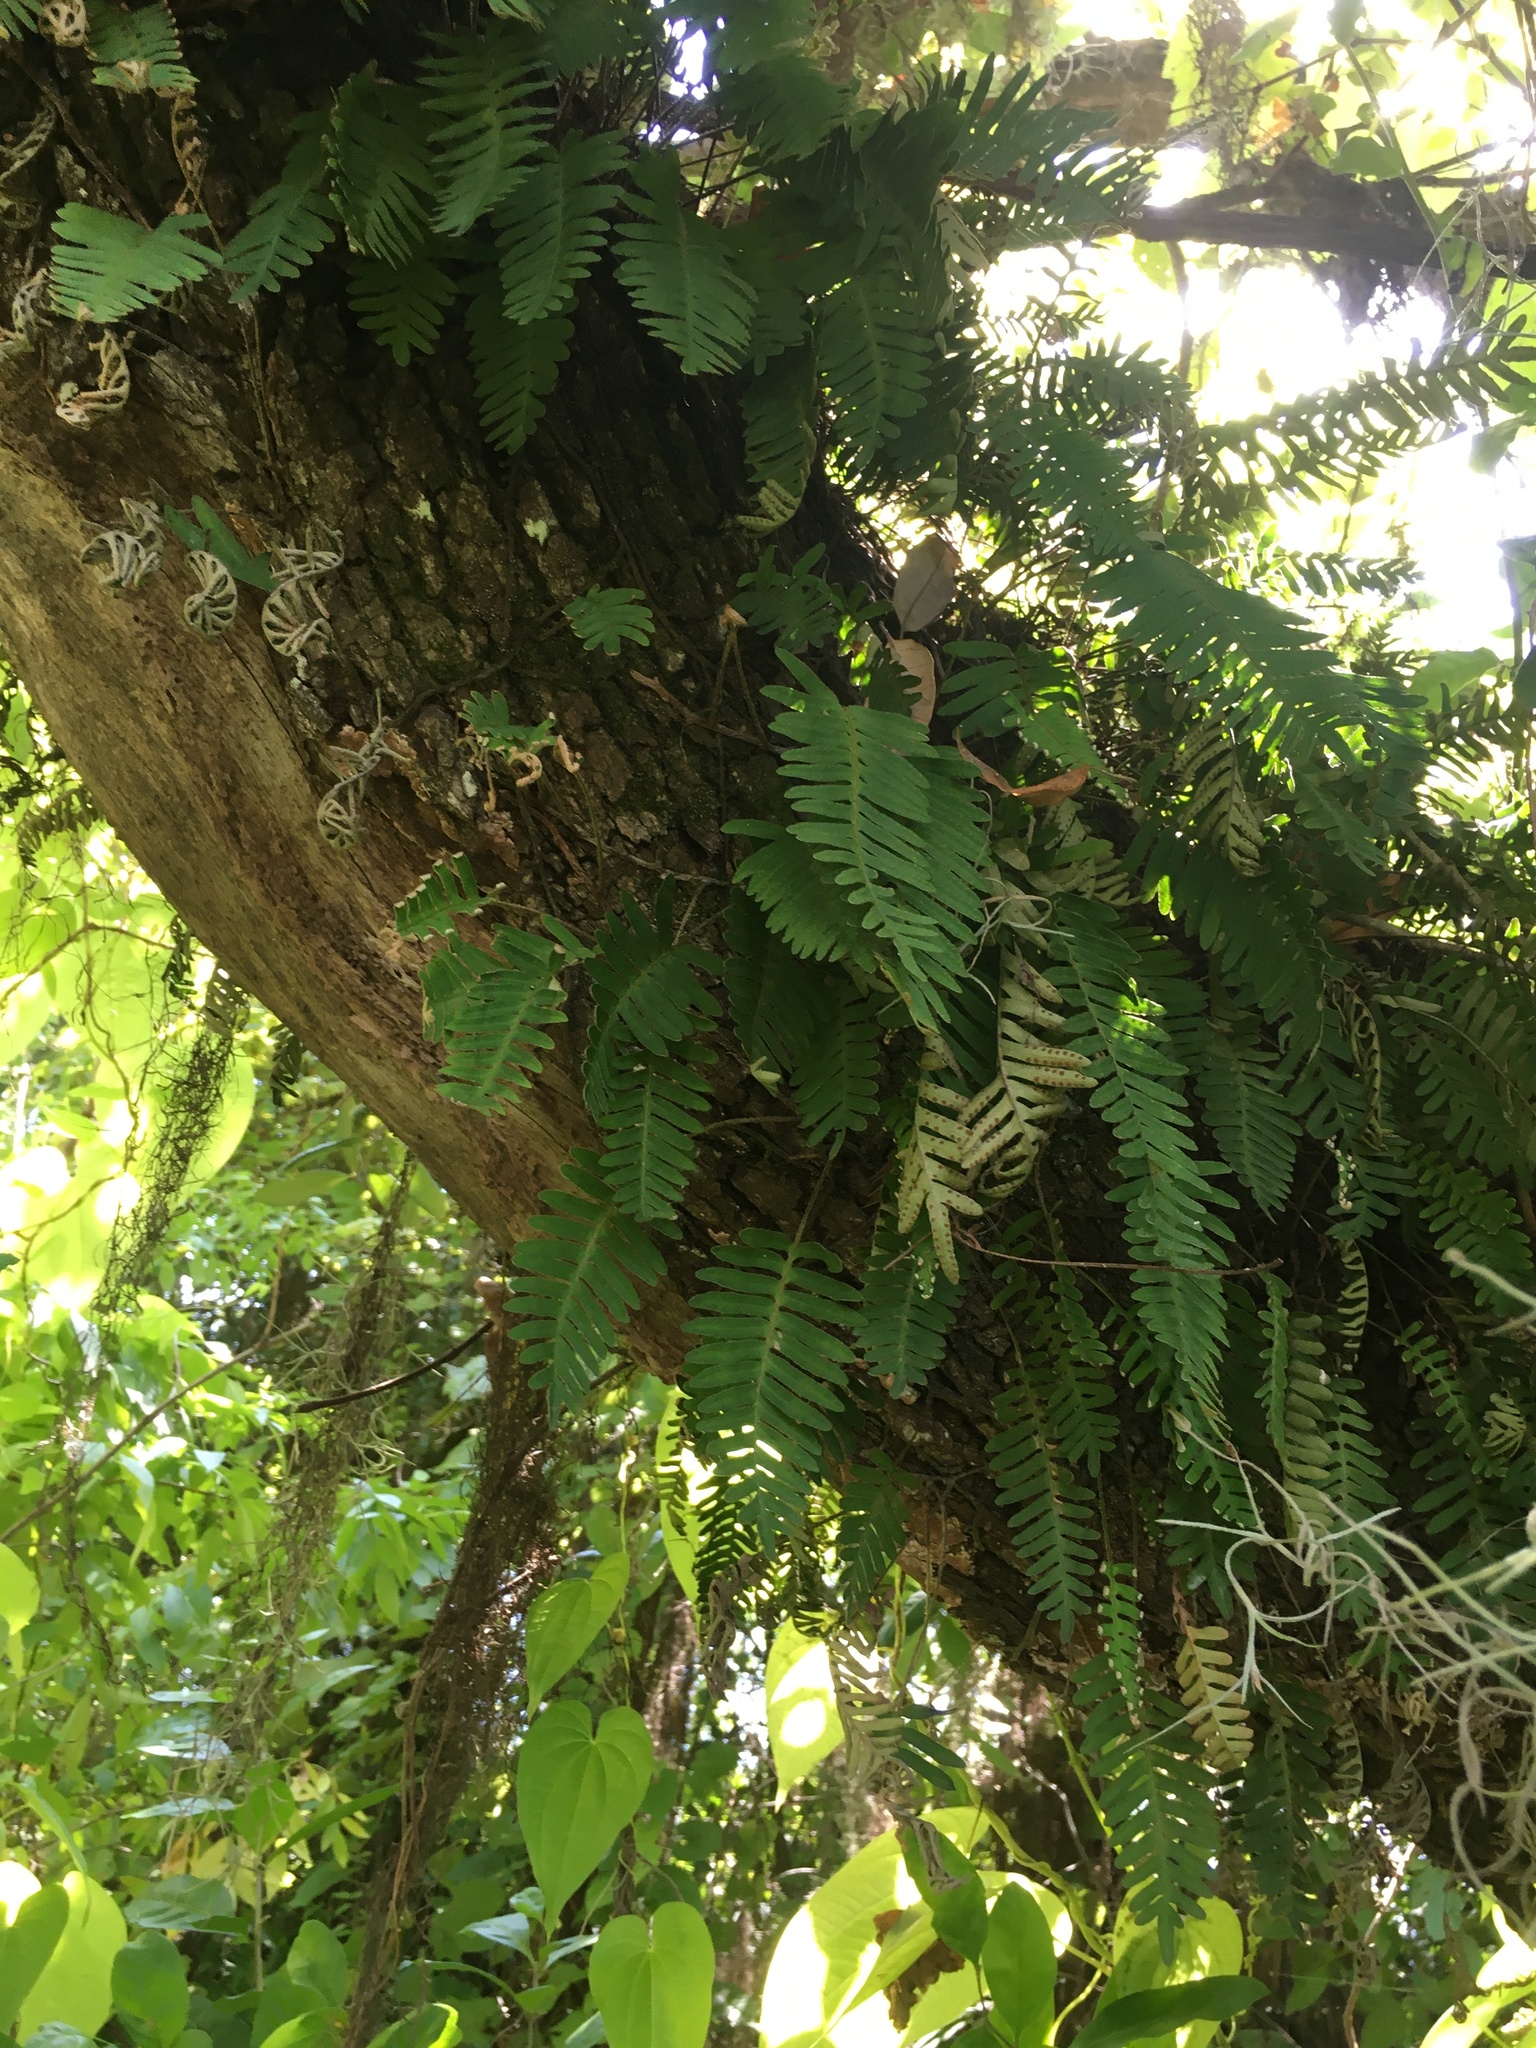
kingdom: Plantae
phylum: Tracheophyta
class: Polypodiopsida
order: Polypodiales
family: Polypodiaceae
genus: Pleopeltis
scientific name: Pleopeltis michauxiana
